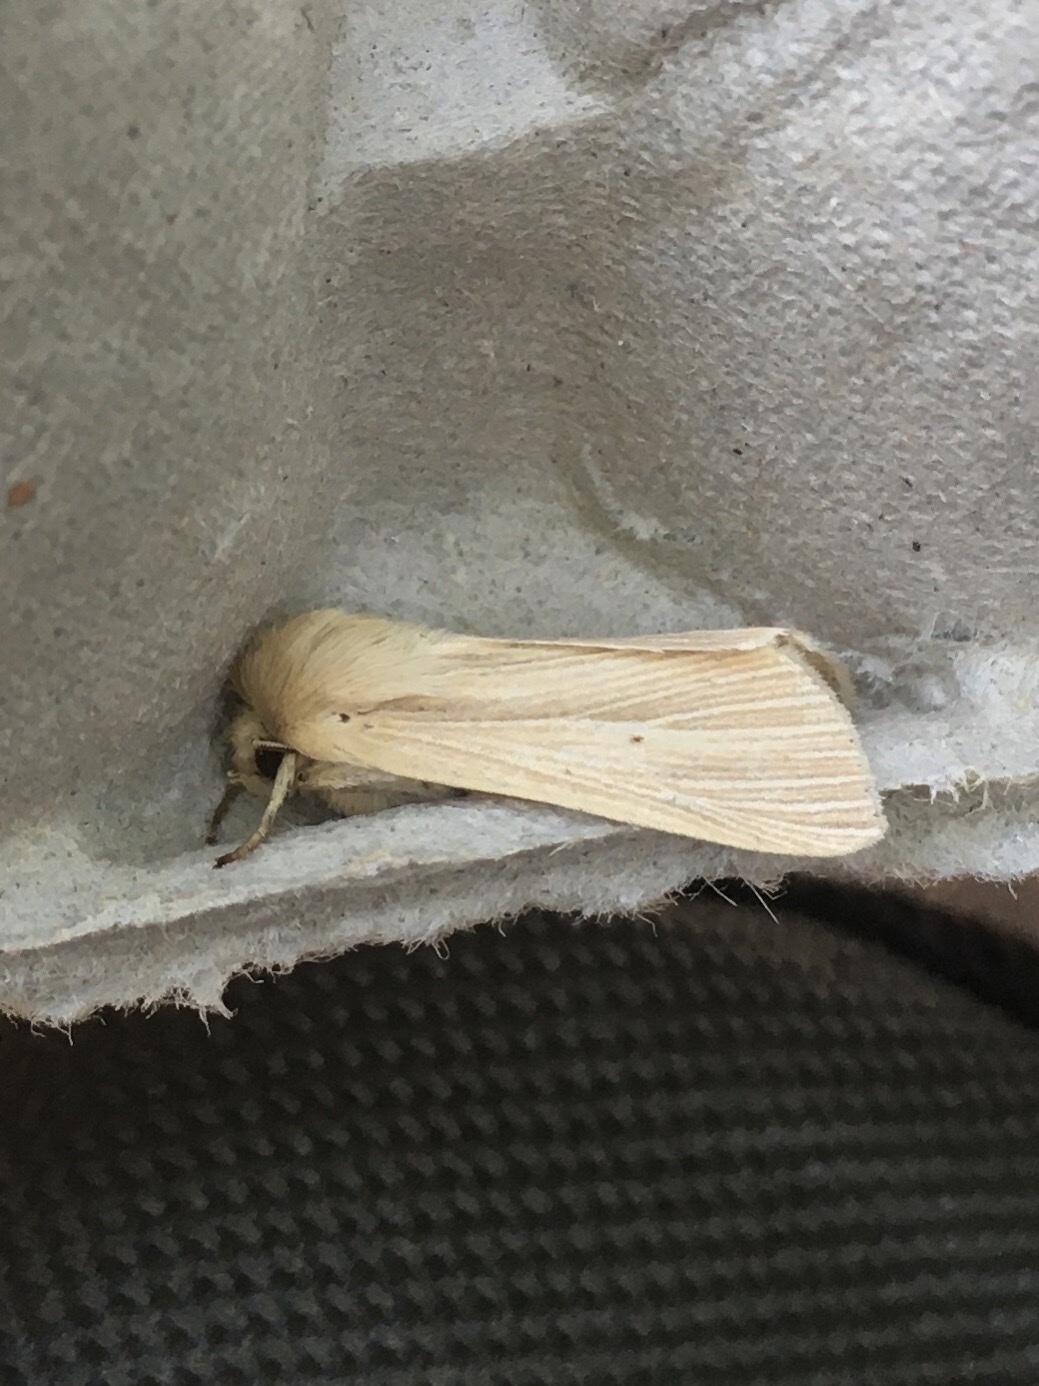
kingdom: Animalia
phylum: Arthropoda
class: Insecta
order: Lepidoptera
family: Noctuidae
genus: Mythimna
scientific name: Mythimna oxygala
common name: Lesser wainscot
